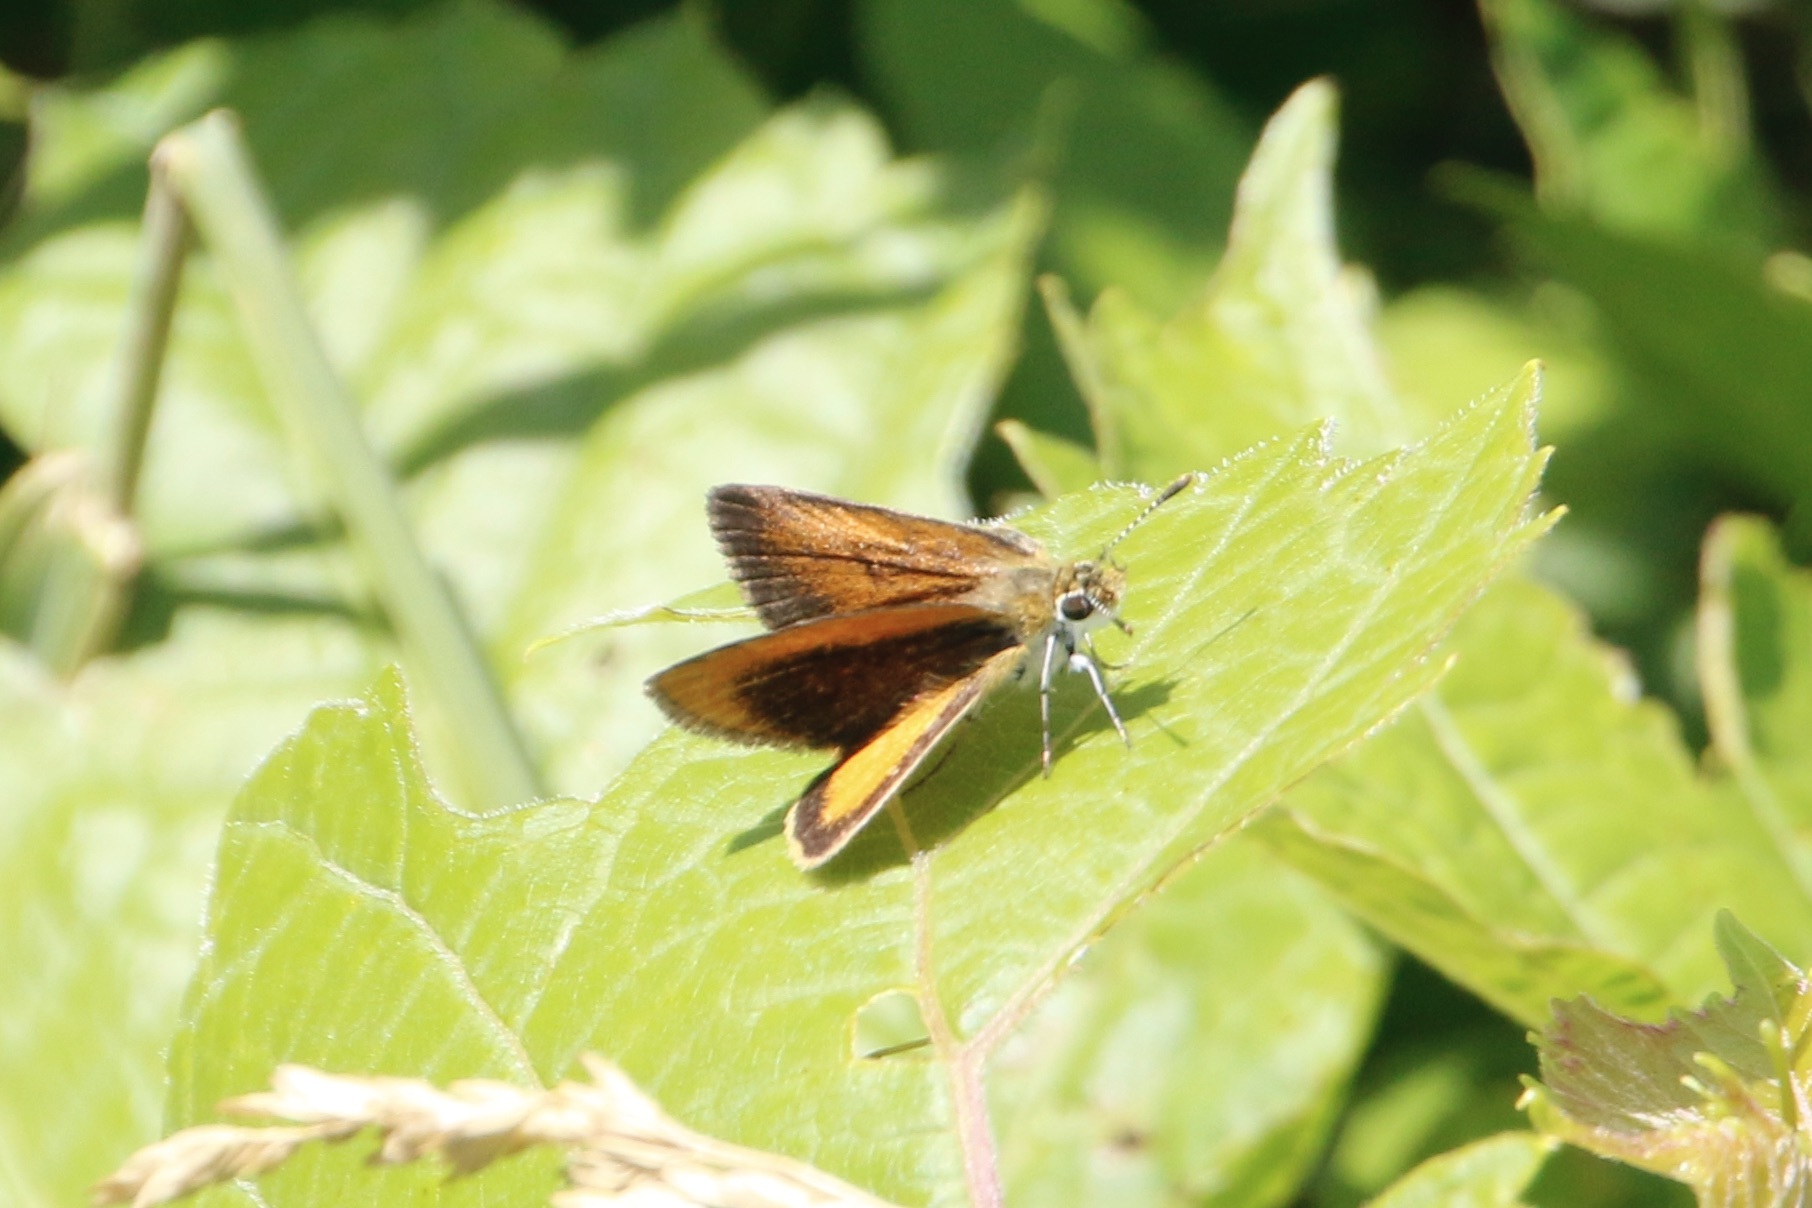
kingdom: Animalia
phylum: Arthropoda
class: Insecta
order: Lepidoptera
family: Hesperiidae
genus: Ancyloxypha
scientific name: Ancyloxypha numitor
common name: Least skipper
